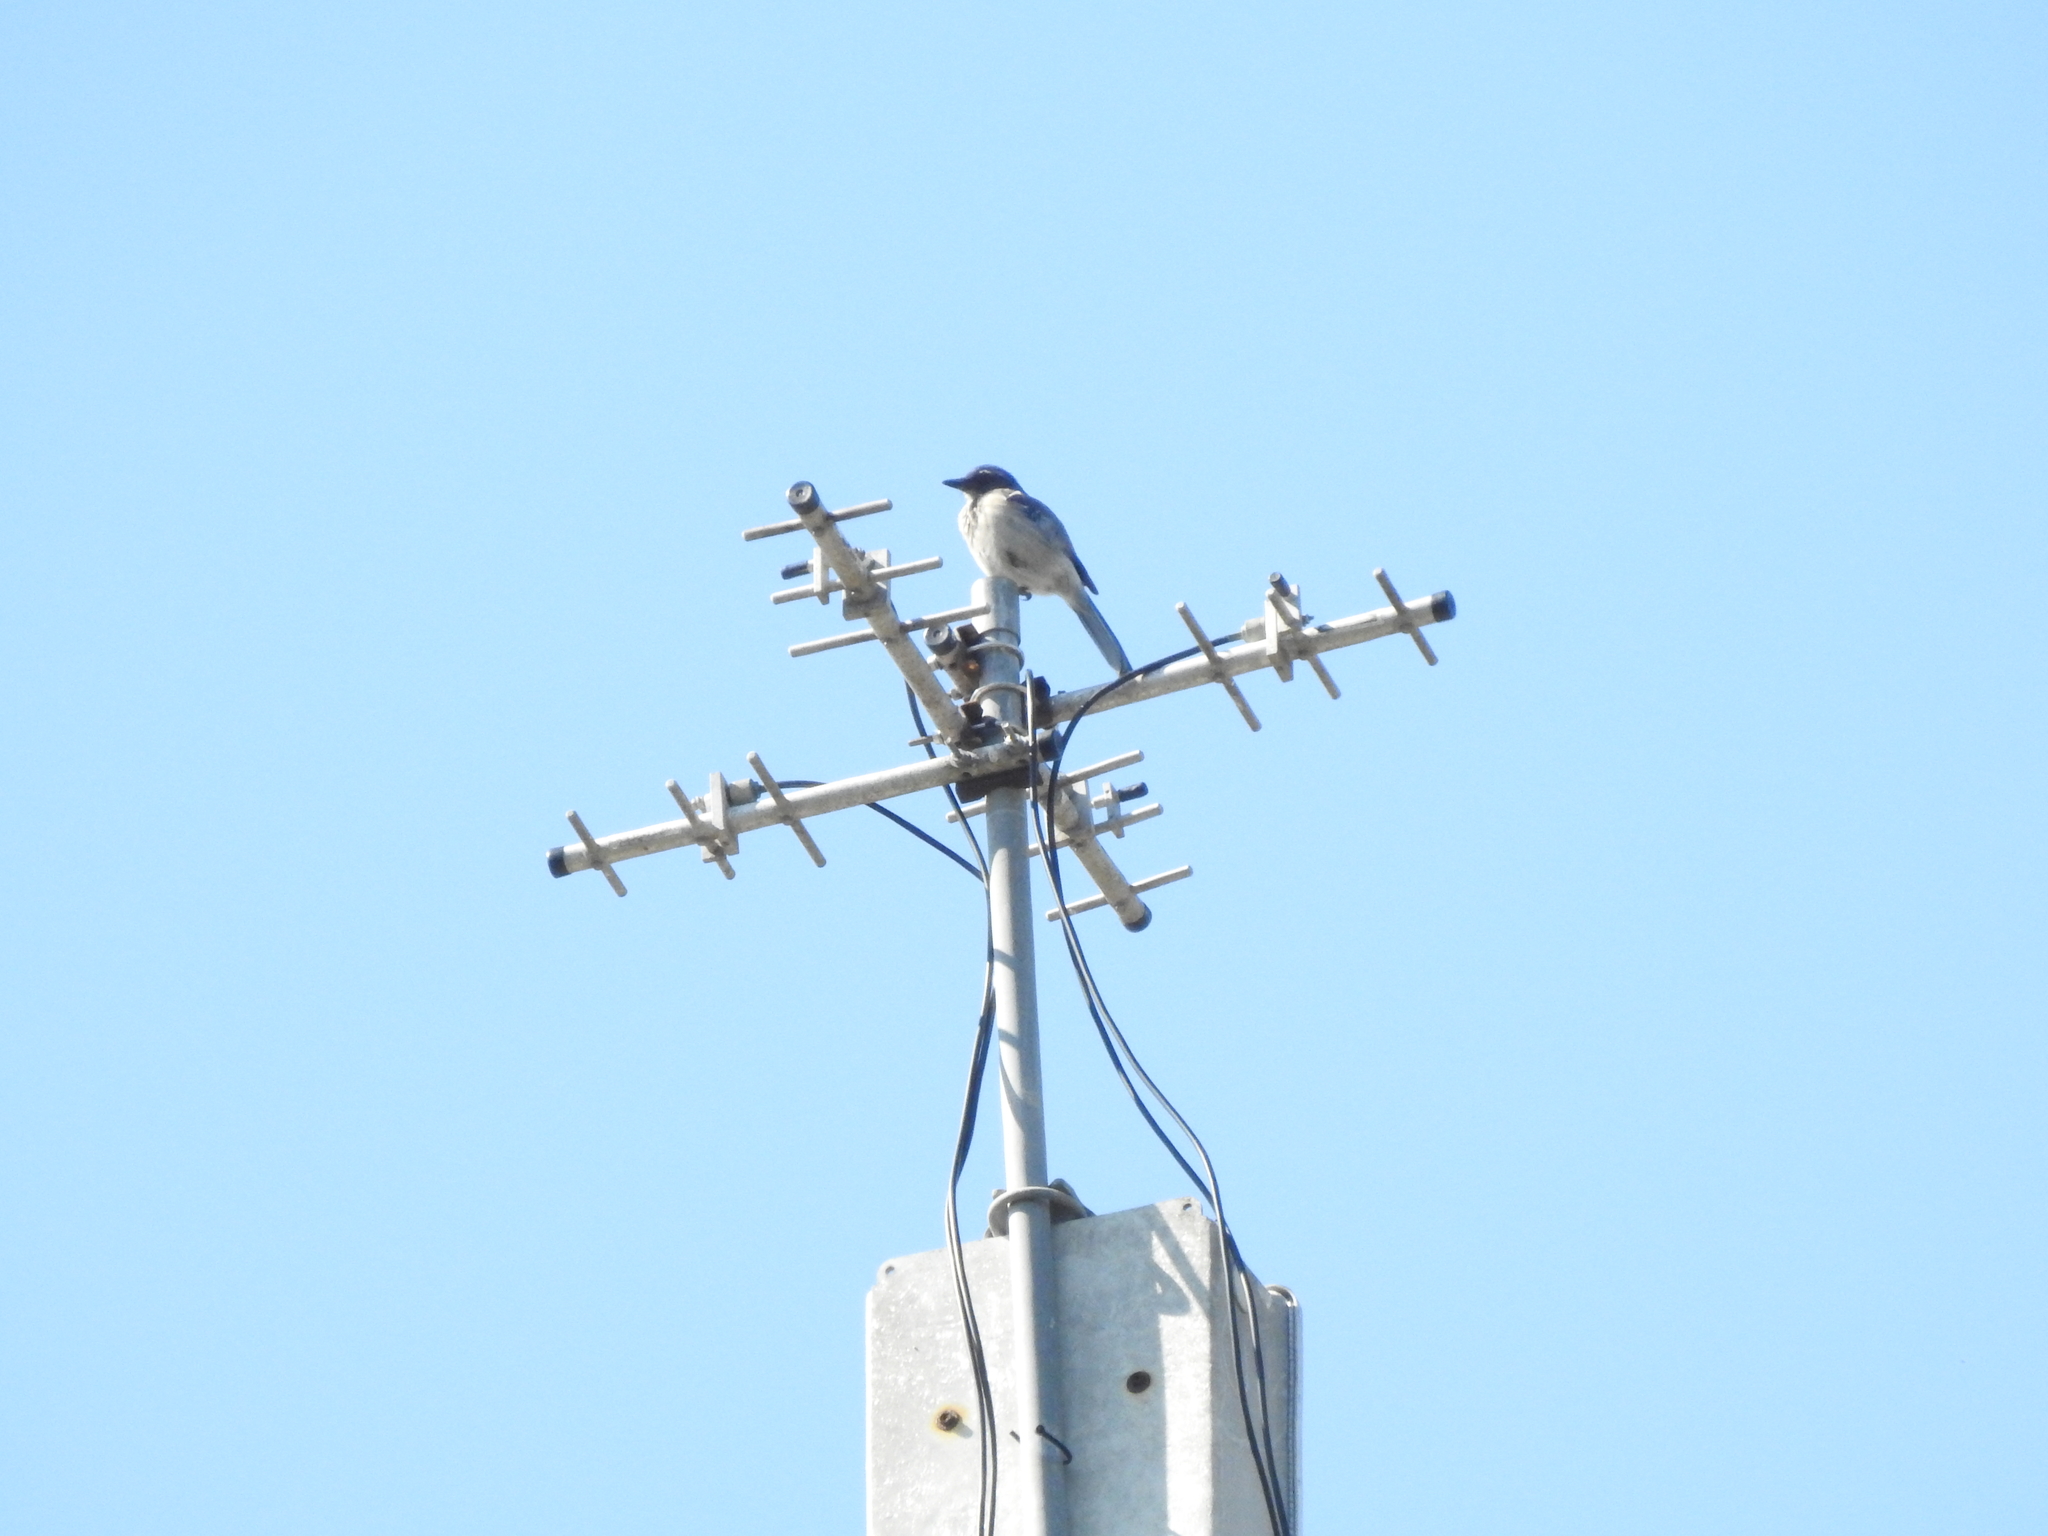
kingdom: Animalia
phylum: Chordata
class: Aves
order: Passeriformes
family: Corvidae
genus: Aphelocoma
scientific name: Aphelocoma californica
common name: California scrub-jay
